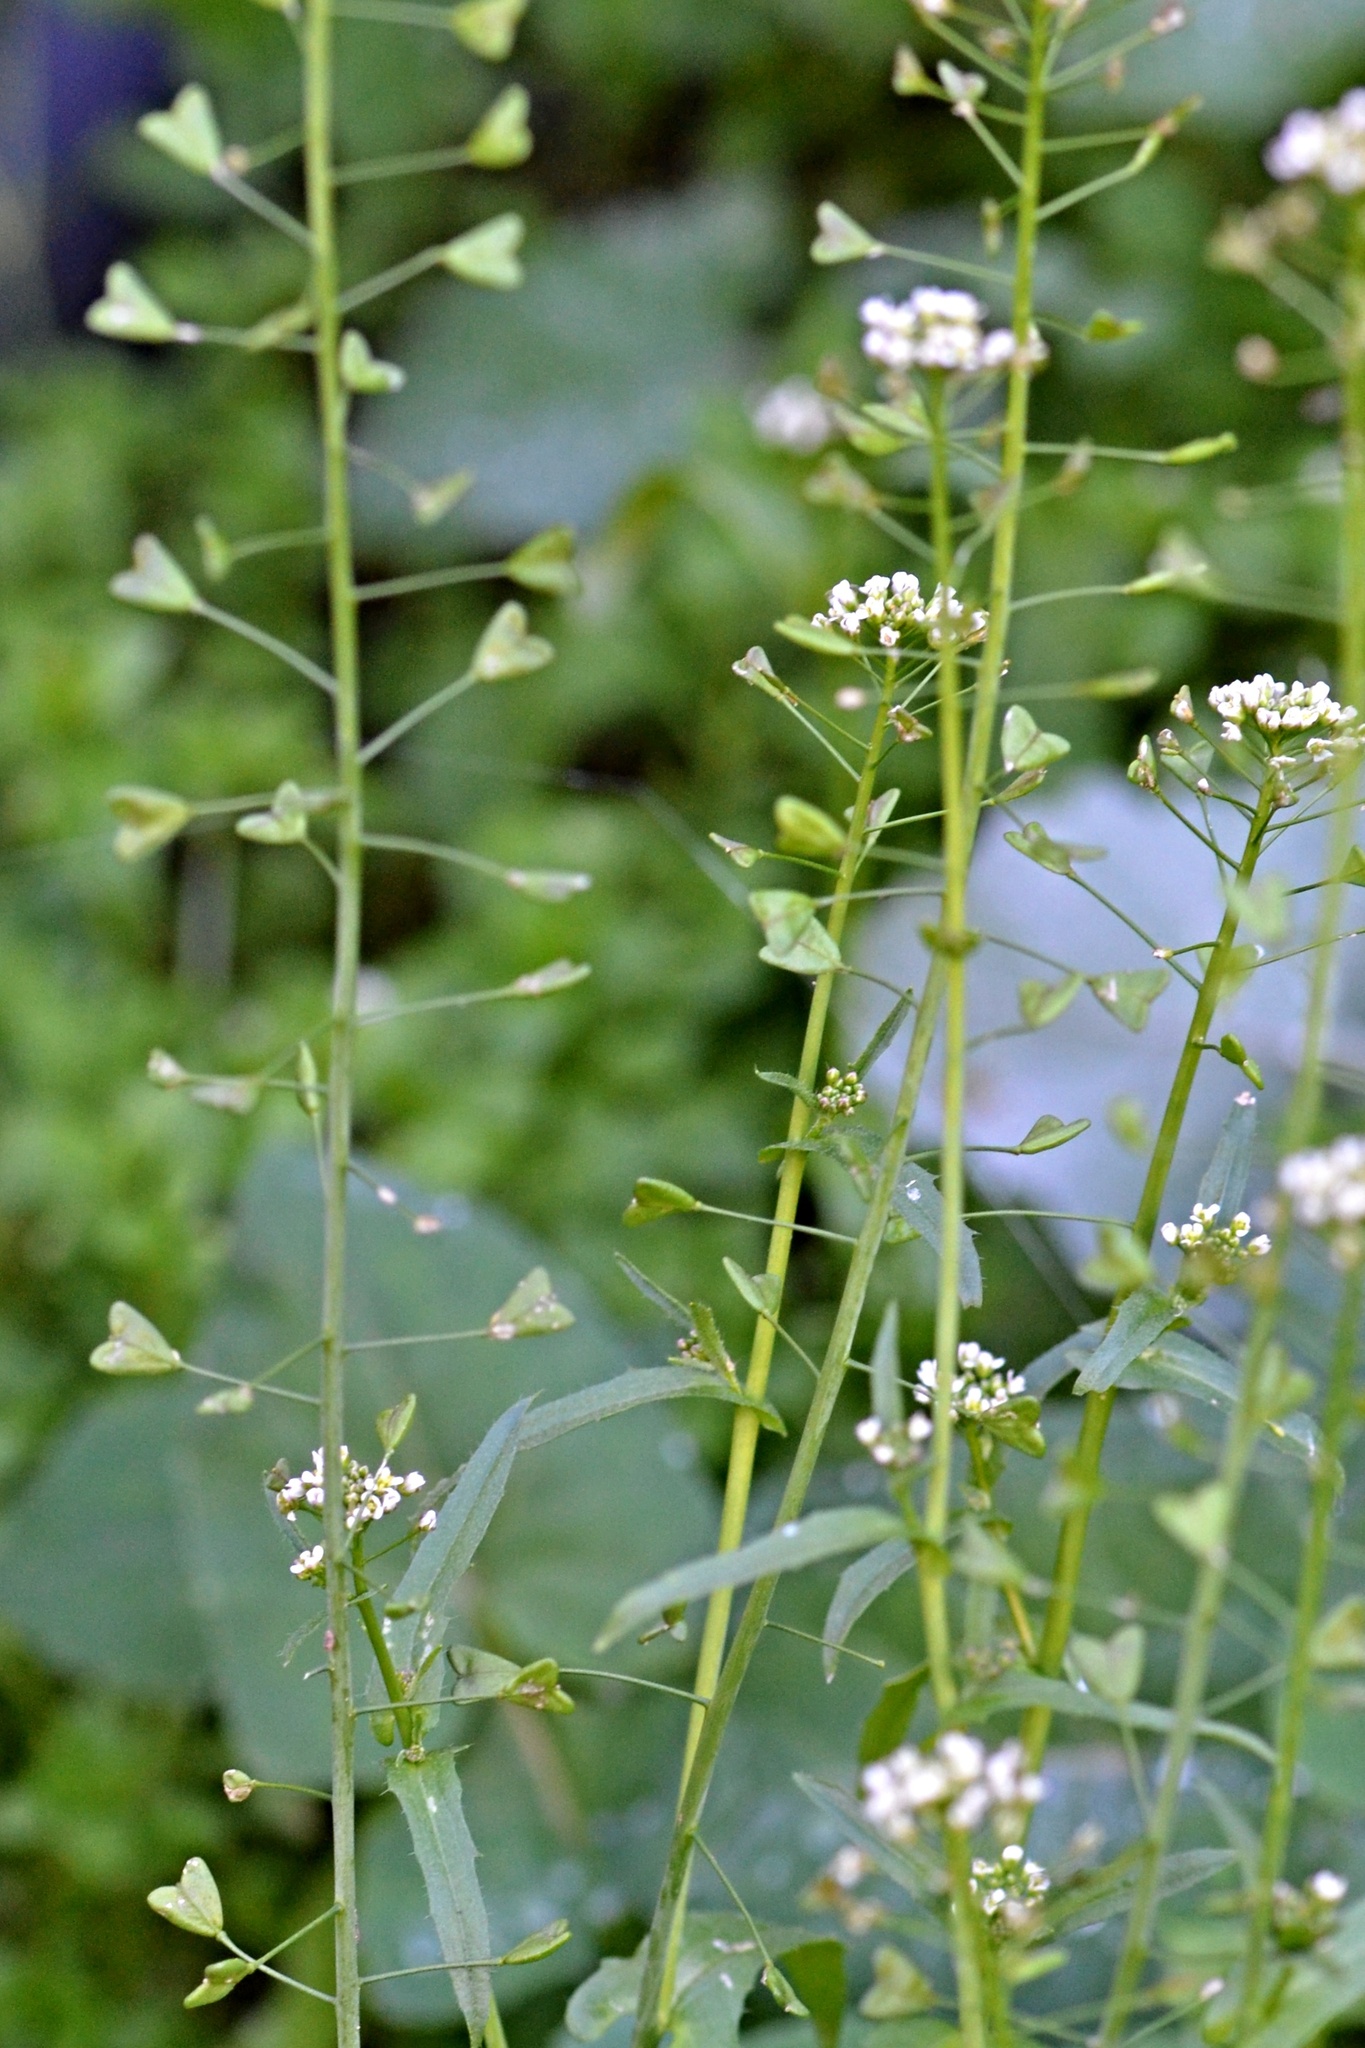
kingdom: Plantae
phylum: Tracheophyta
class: Magnoliopsida
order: Brassicales
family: Brassicaceae
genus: Capsella
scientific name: Capsella bursa-pastoris
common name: Shepherd's purse
